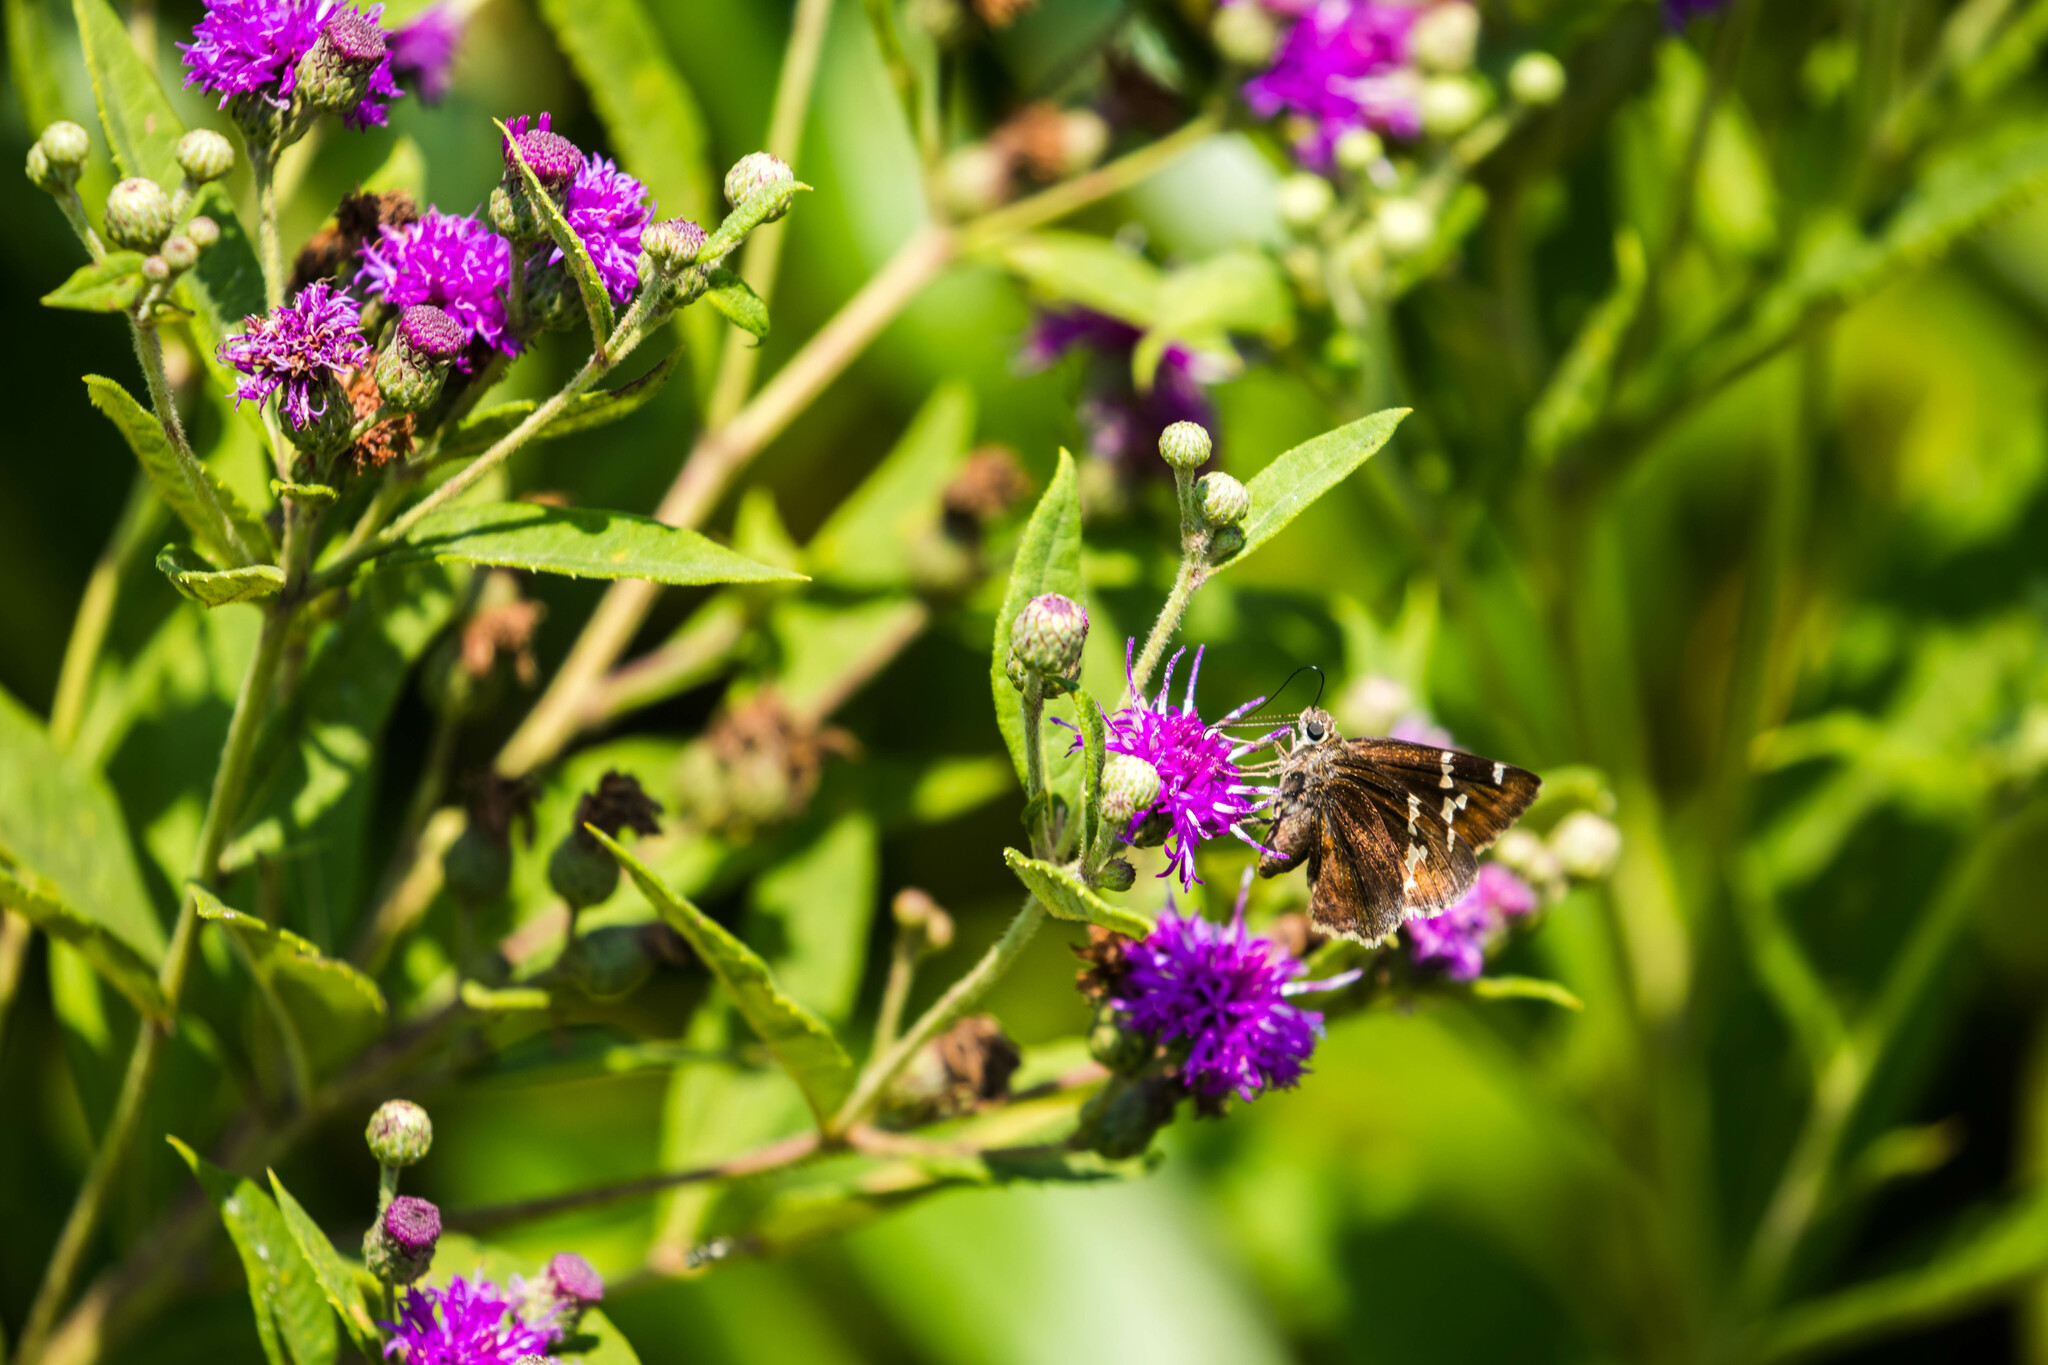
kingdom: Animalia
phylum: Arthropoda
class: Insecta
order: Lepidoptera
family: Hesperiidae
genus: Thorybes
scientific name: Thorybes daunus
